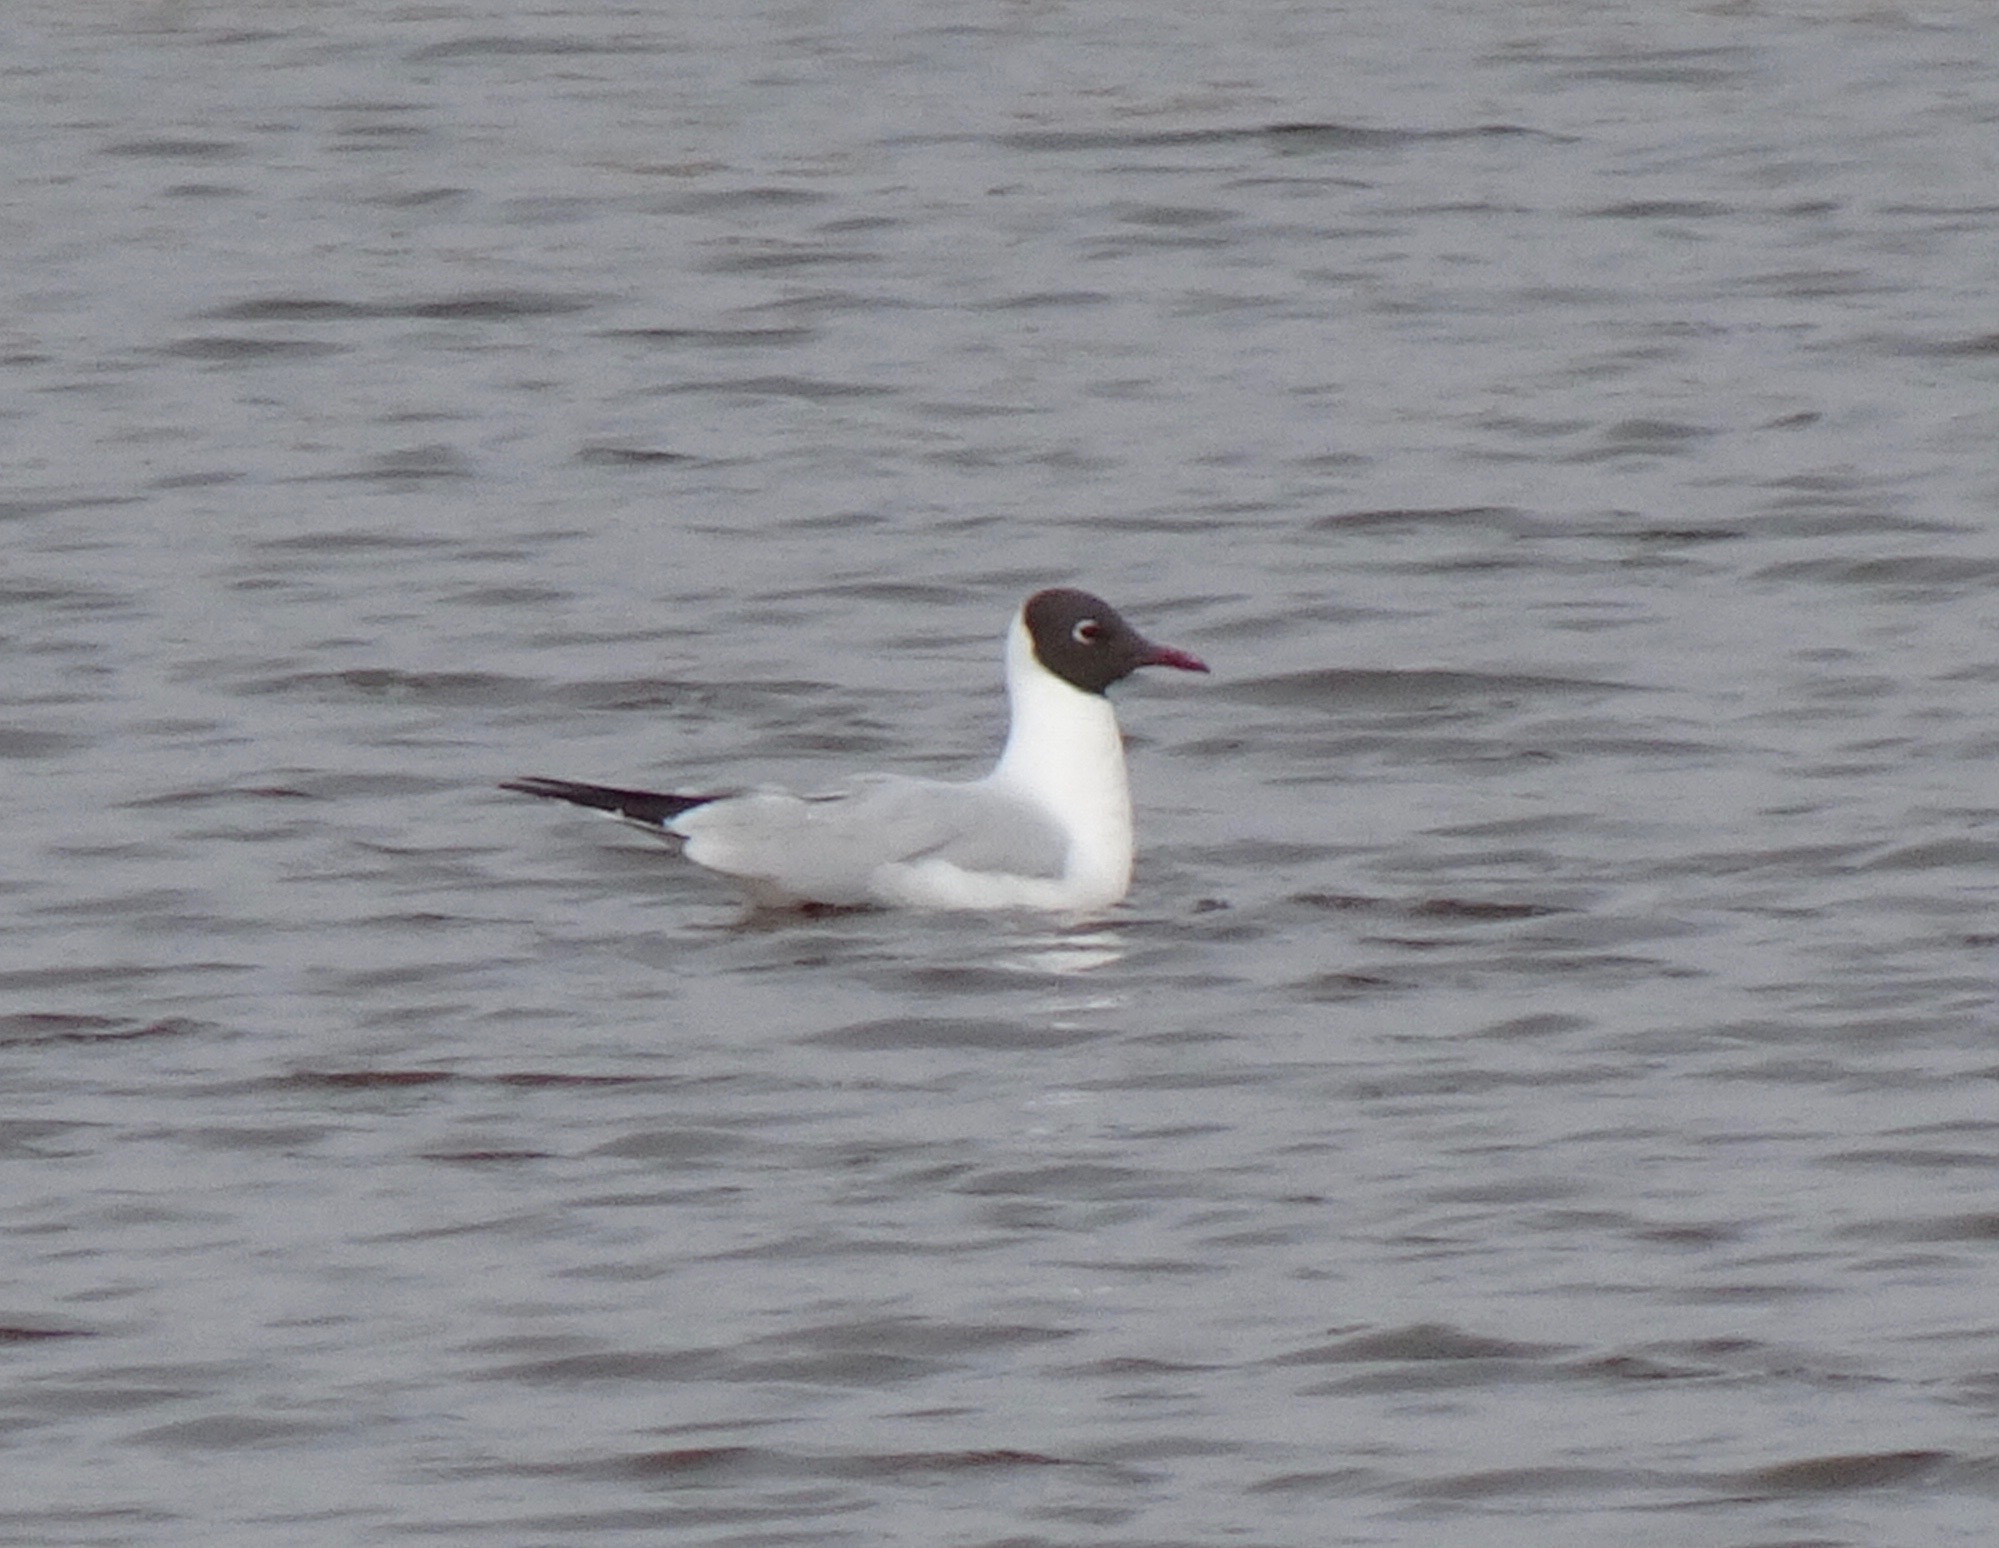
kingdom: Animalia
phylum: Chordata
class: Aves
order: Charadriiformes
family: Laridae
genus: Chroicocephalus
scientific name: Chroicocephalus ridibundus
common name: Black-headed gull
